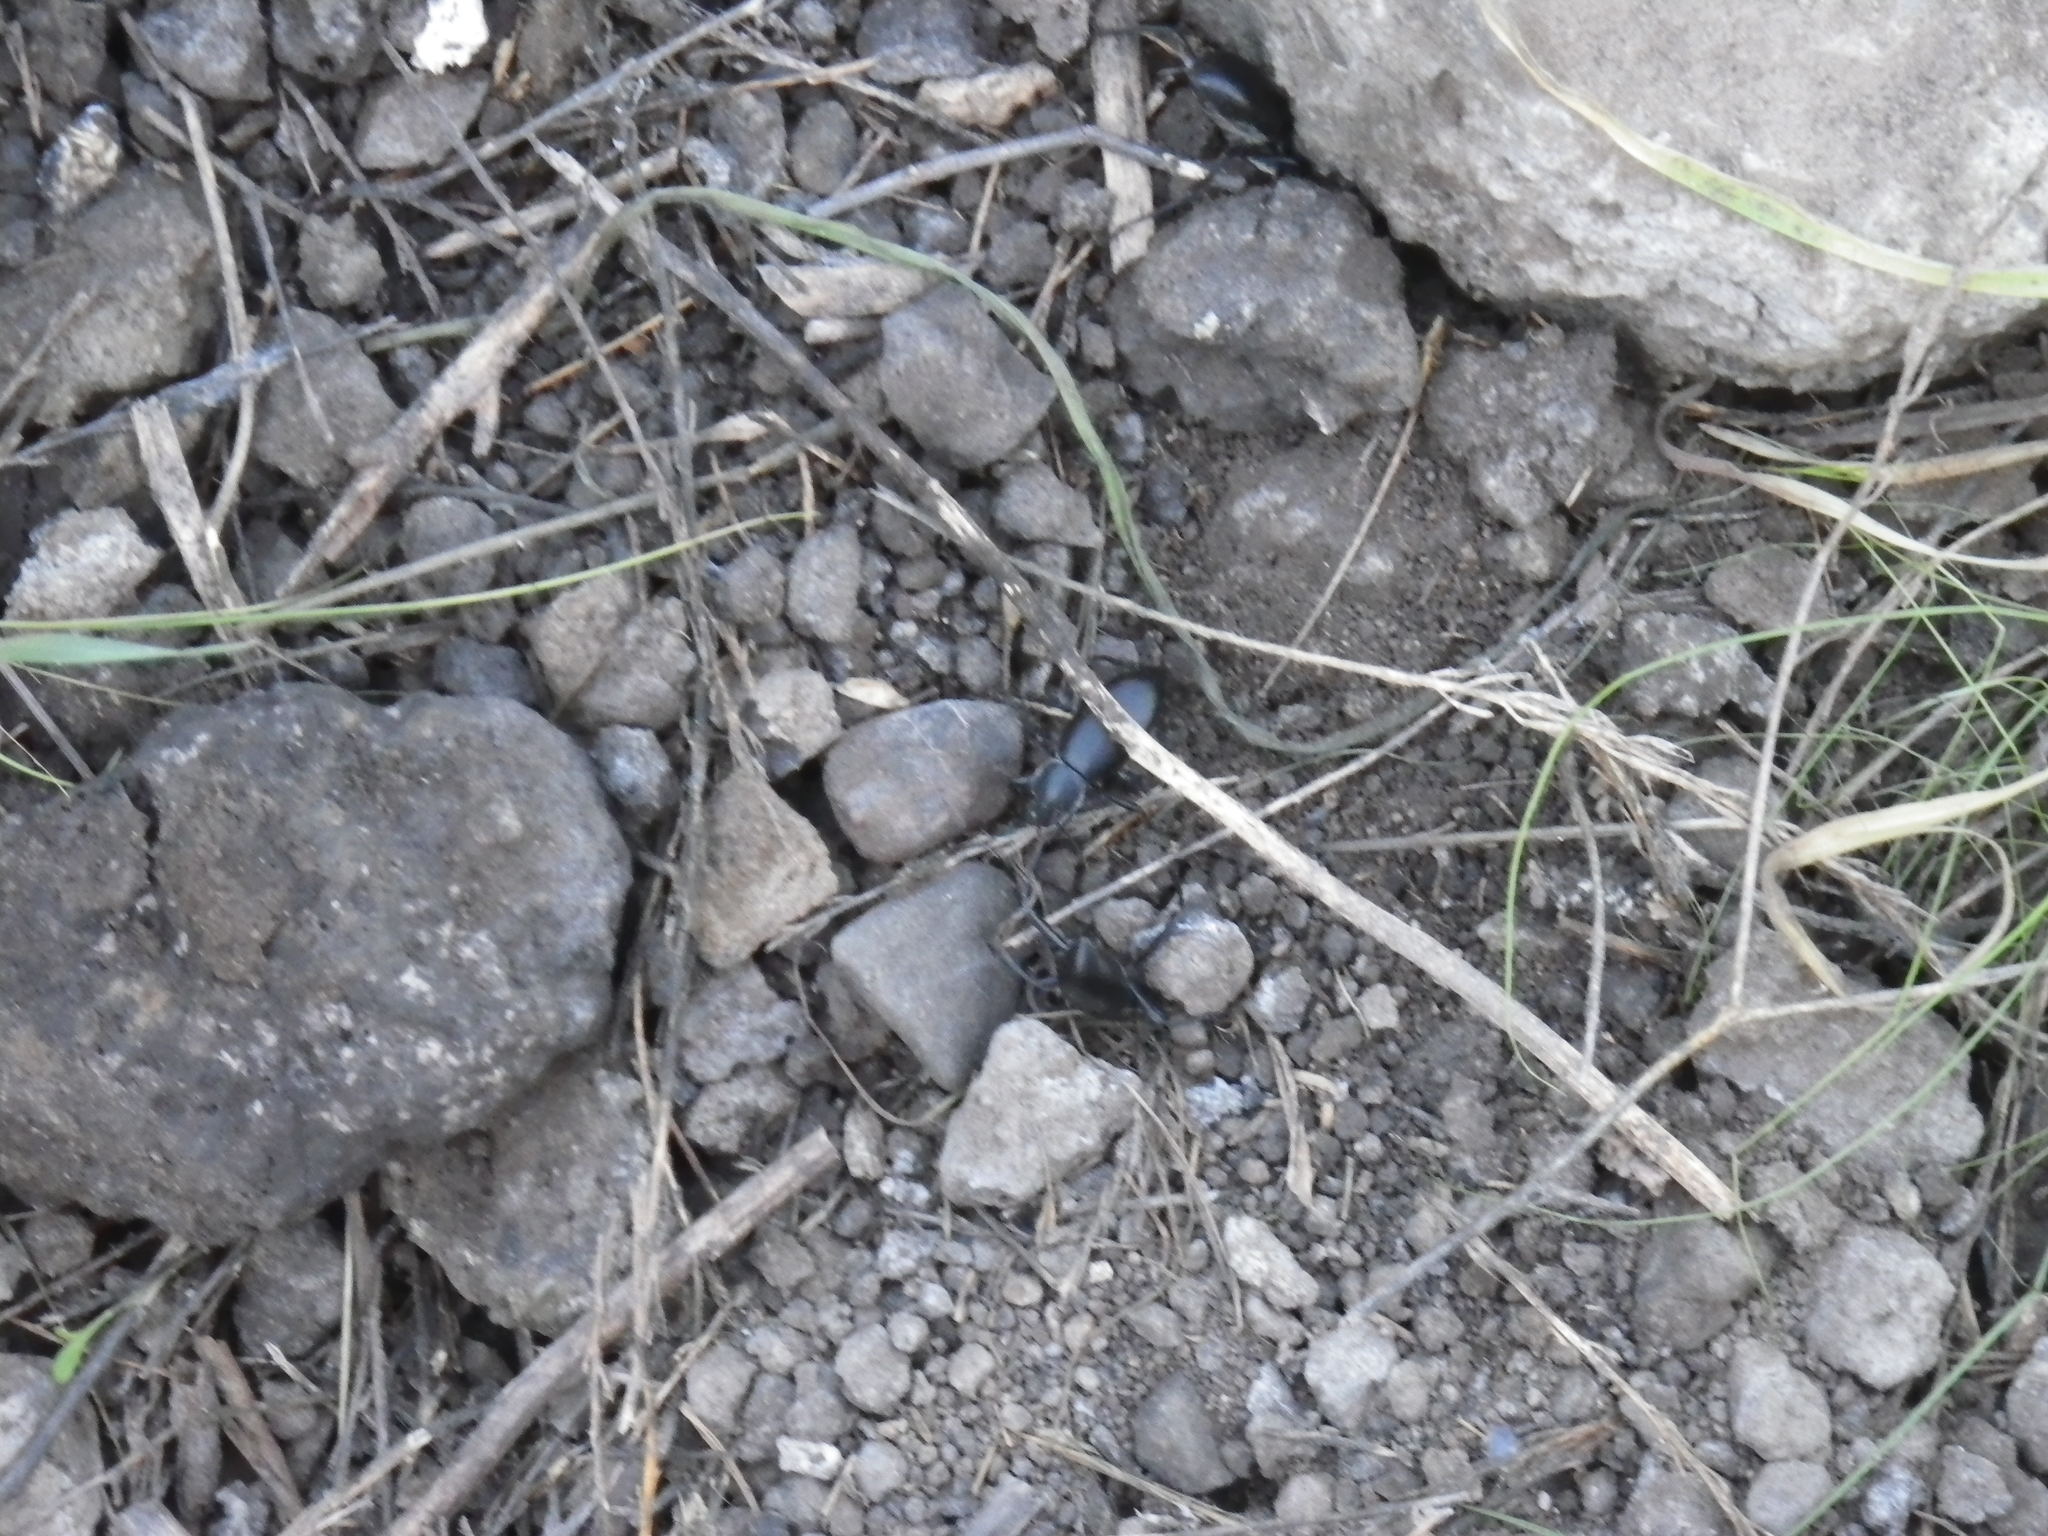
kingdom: Animalia
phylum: Arthropoda
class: Insecta
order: Coleoptera
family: Tenebrionidae
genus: Eleodes
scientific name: Eleodes dentipes
